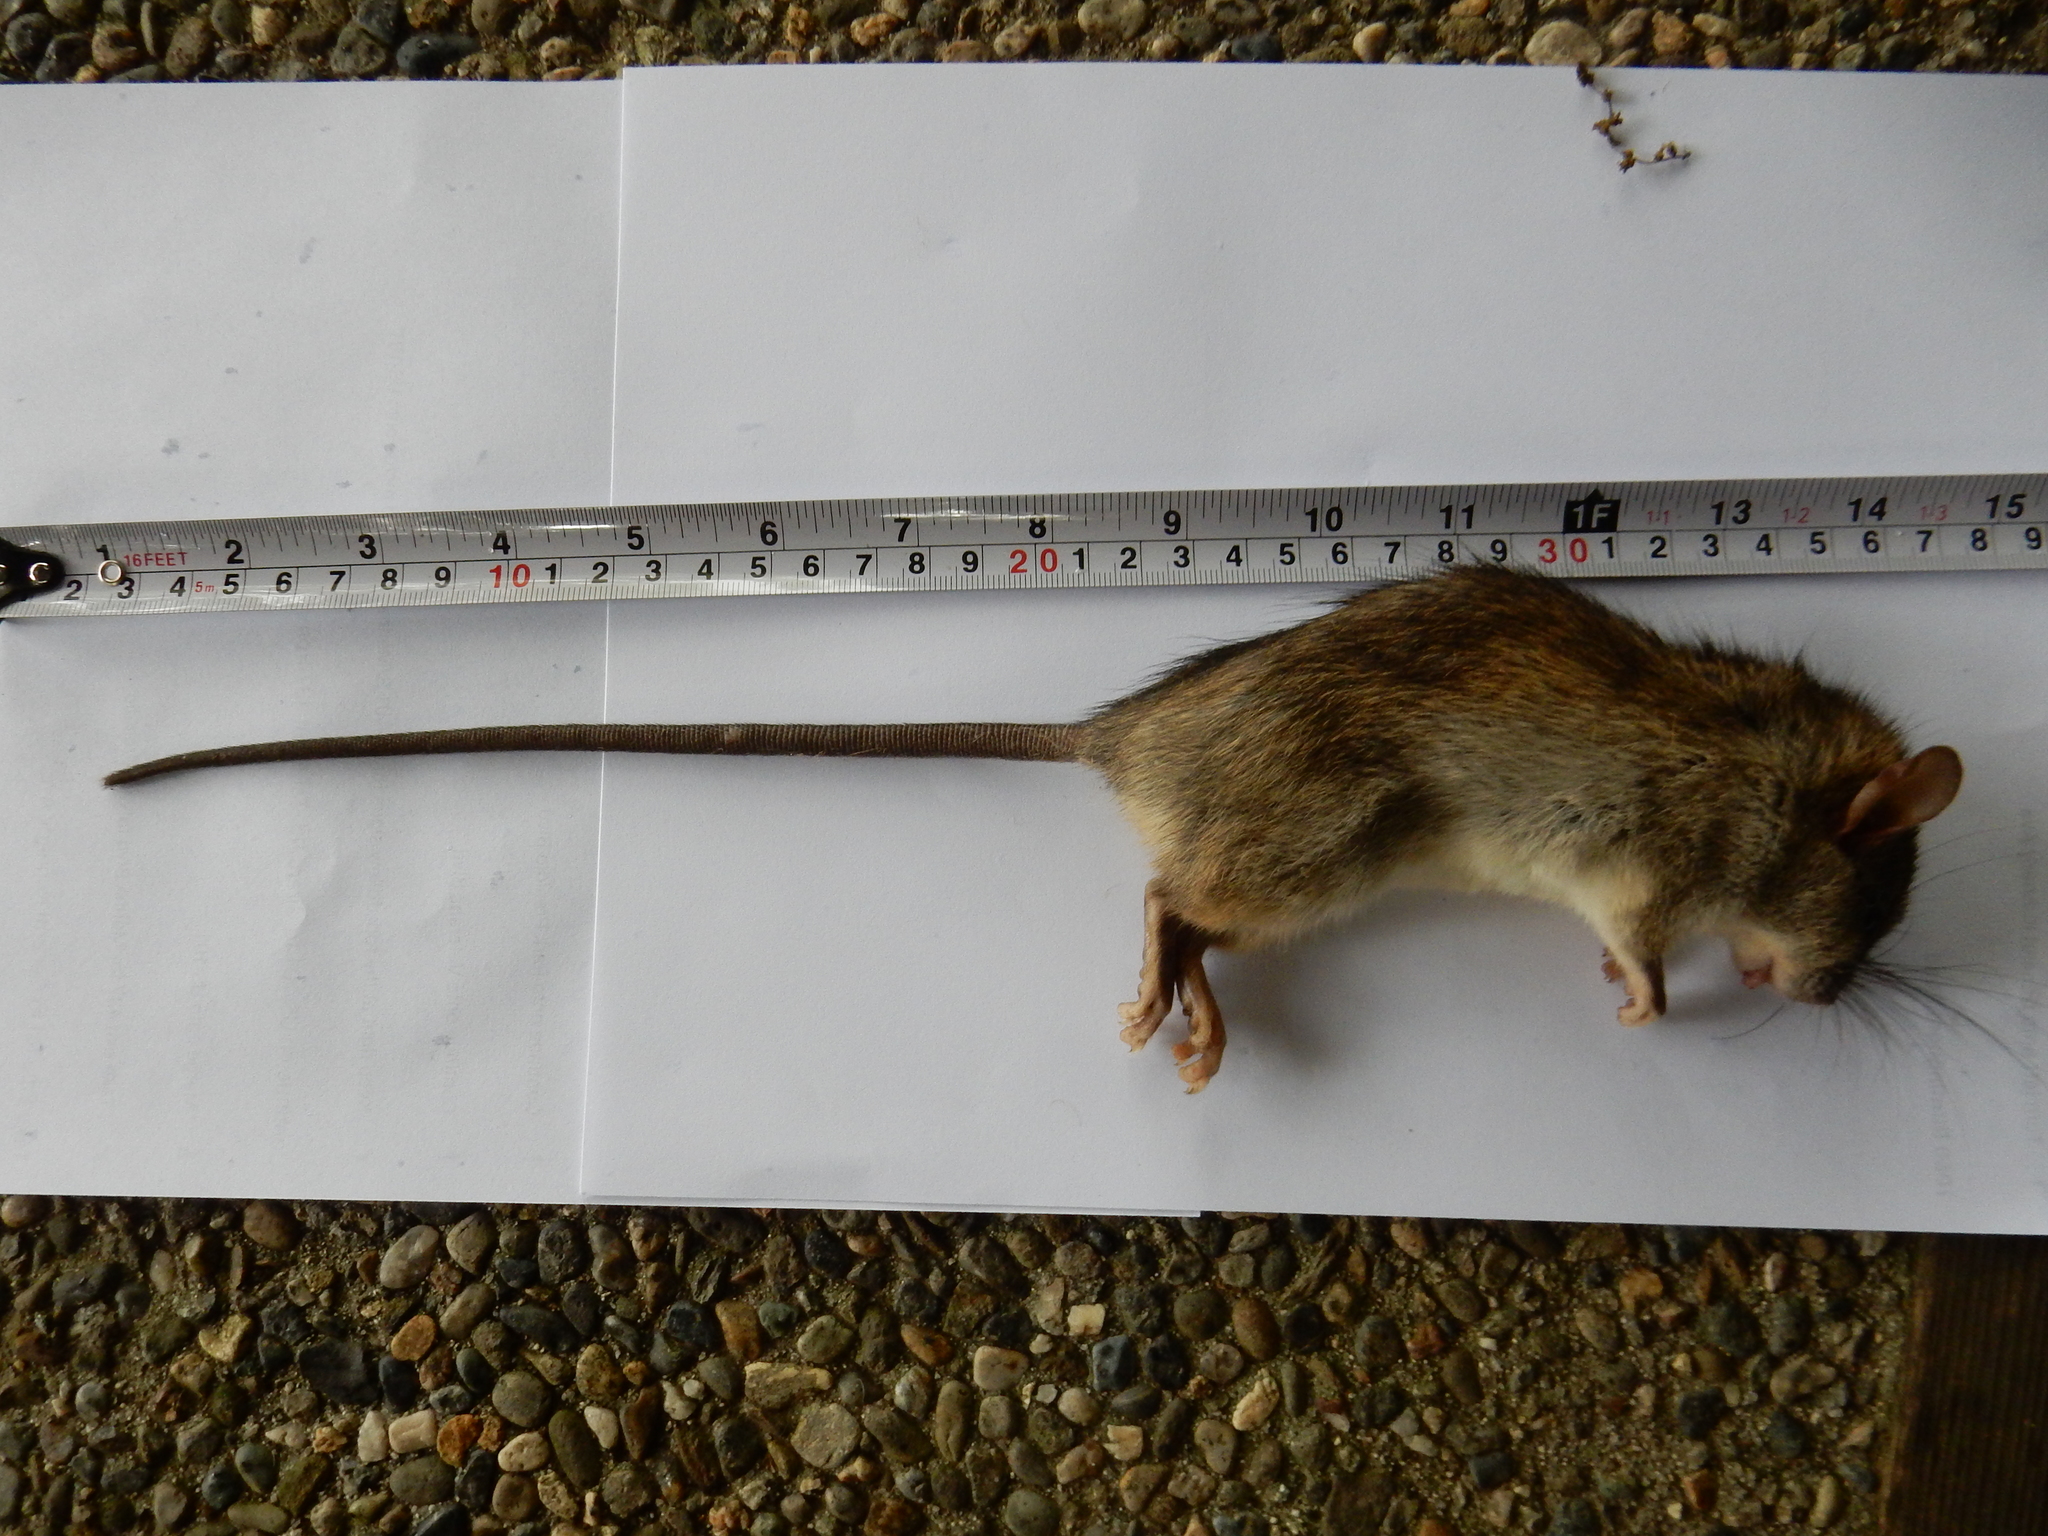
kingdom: Animalia
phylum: Chordata
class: Mammalia
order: Rodentia
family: Muridae
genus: Rattus
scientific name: Rattus rattus
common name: Black rat
